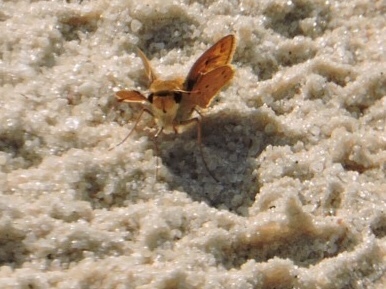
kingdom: Animalia
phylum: Arthropoda
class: Insecta
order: Lepidoptera
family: Hesperiidae
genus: Hylephila
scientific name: Hylephila phyleus
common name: Fiery skipper
